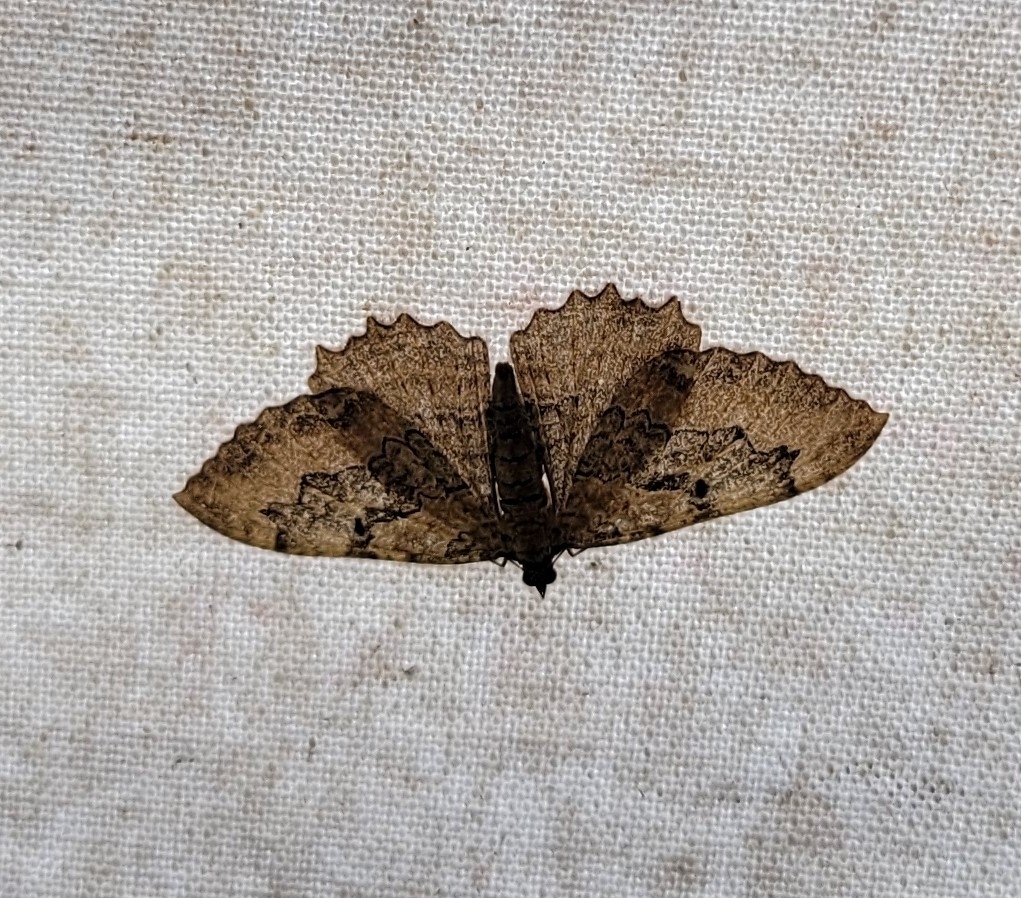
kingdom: Animalia
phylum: Arthropoda
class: Insecta
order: Lepidoptera
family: Geometridae
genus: Rheumaptera
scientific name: Rheumaptera
